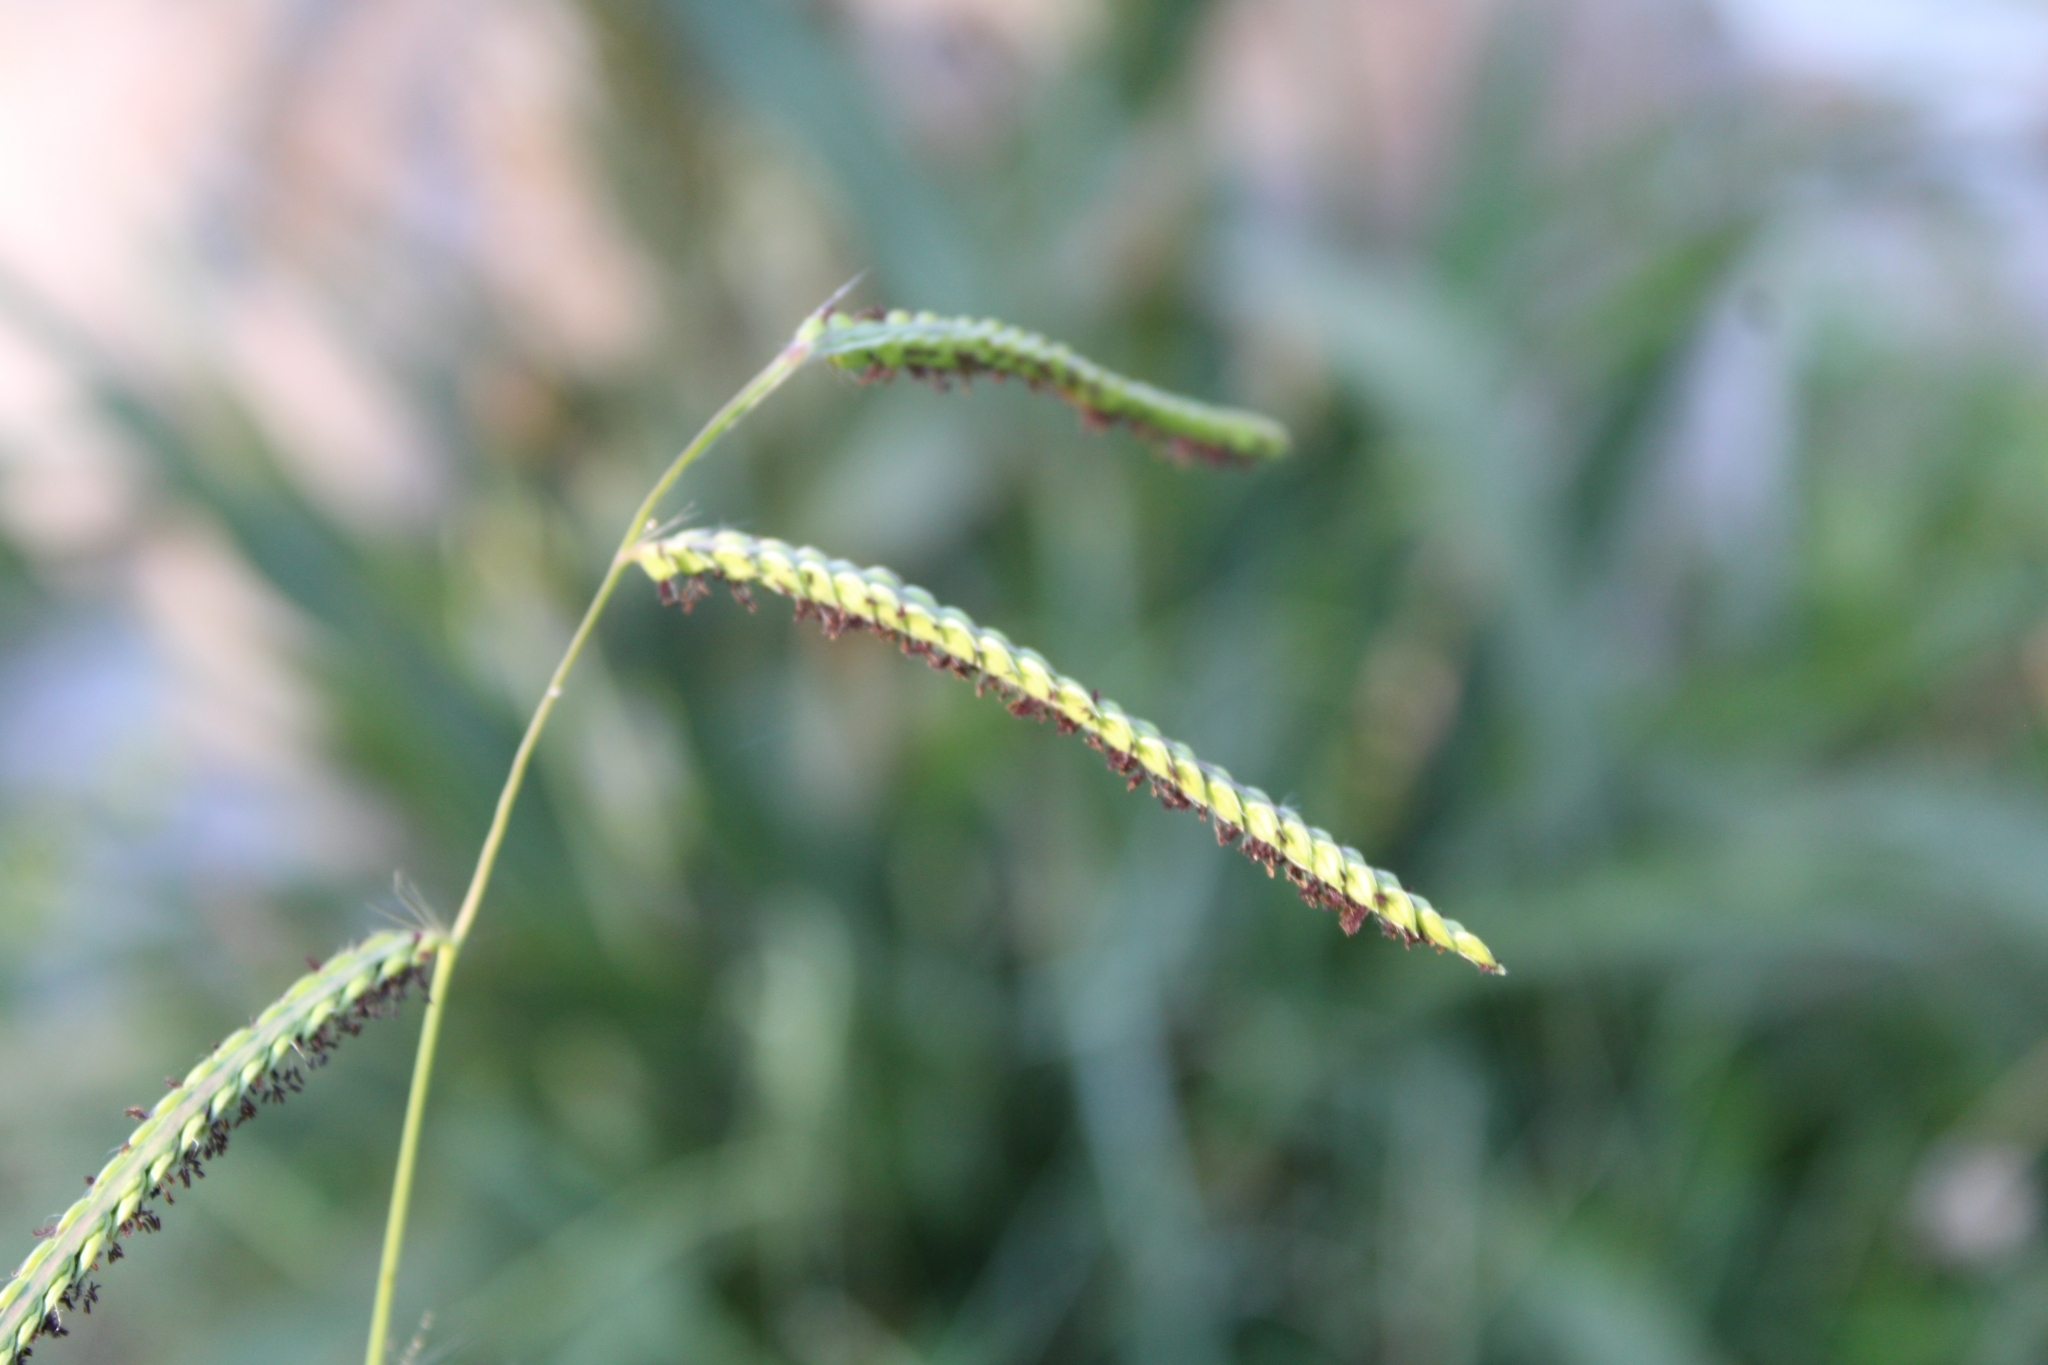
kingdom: Plantae
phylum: Tracheophyta
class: Liliopsida
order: Poales
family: Poaceae
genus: Paspalum
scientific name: Paspalum dilatatum
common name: Dallisgrass
